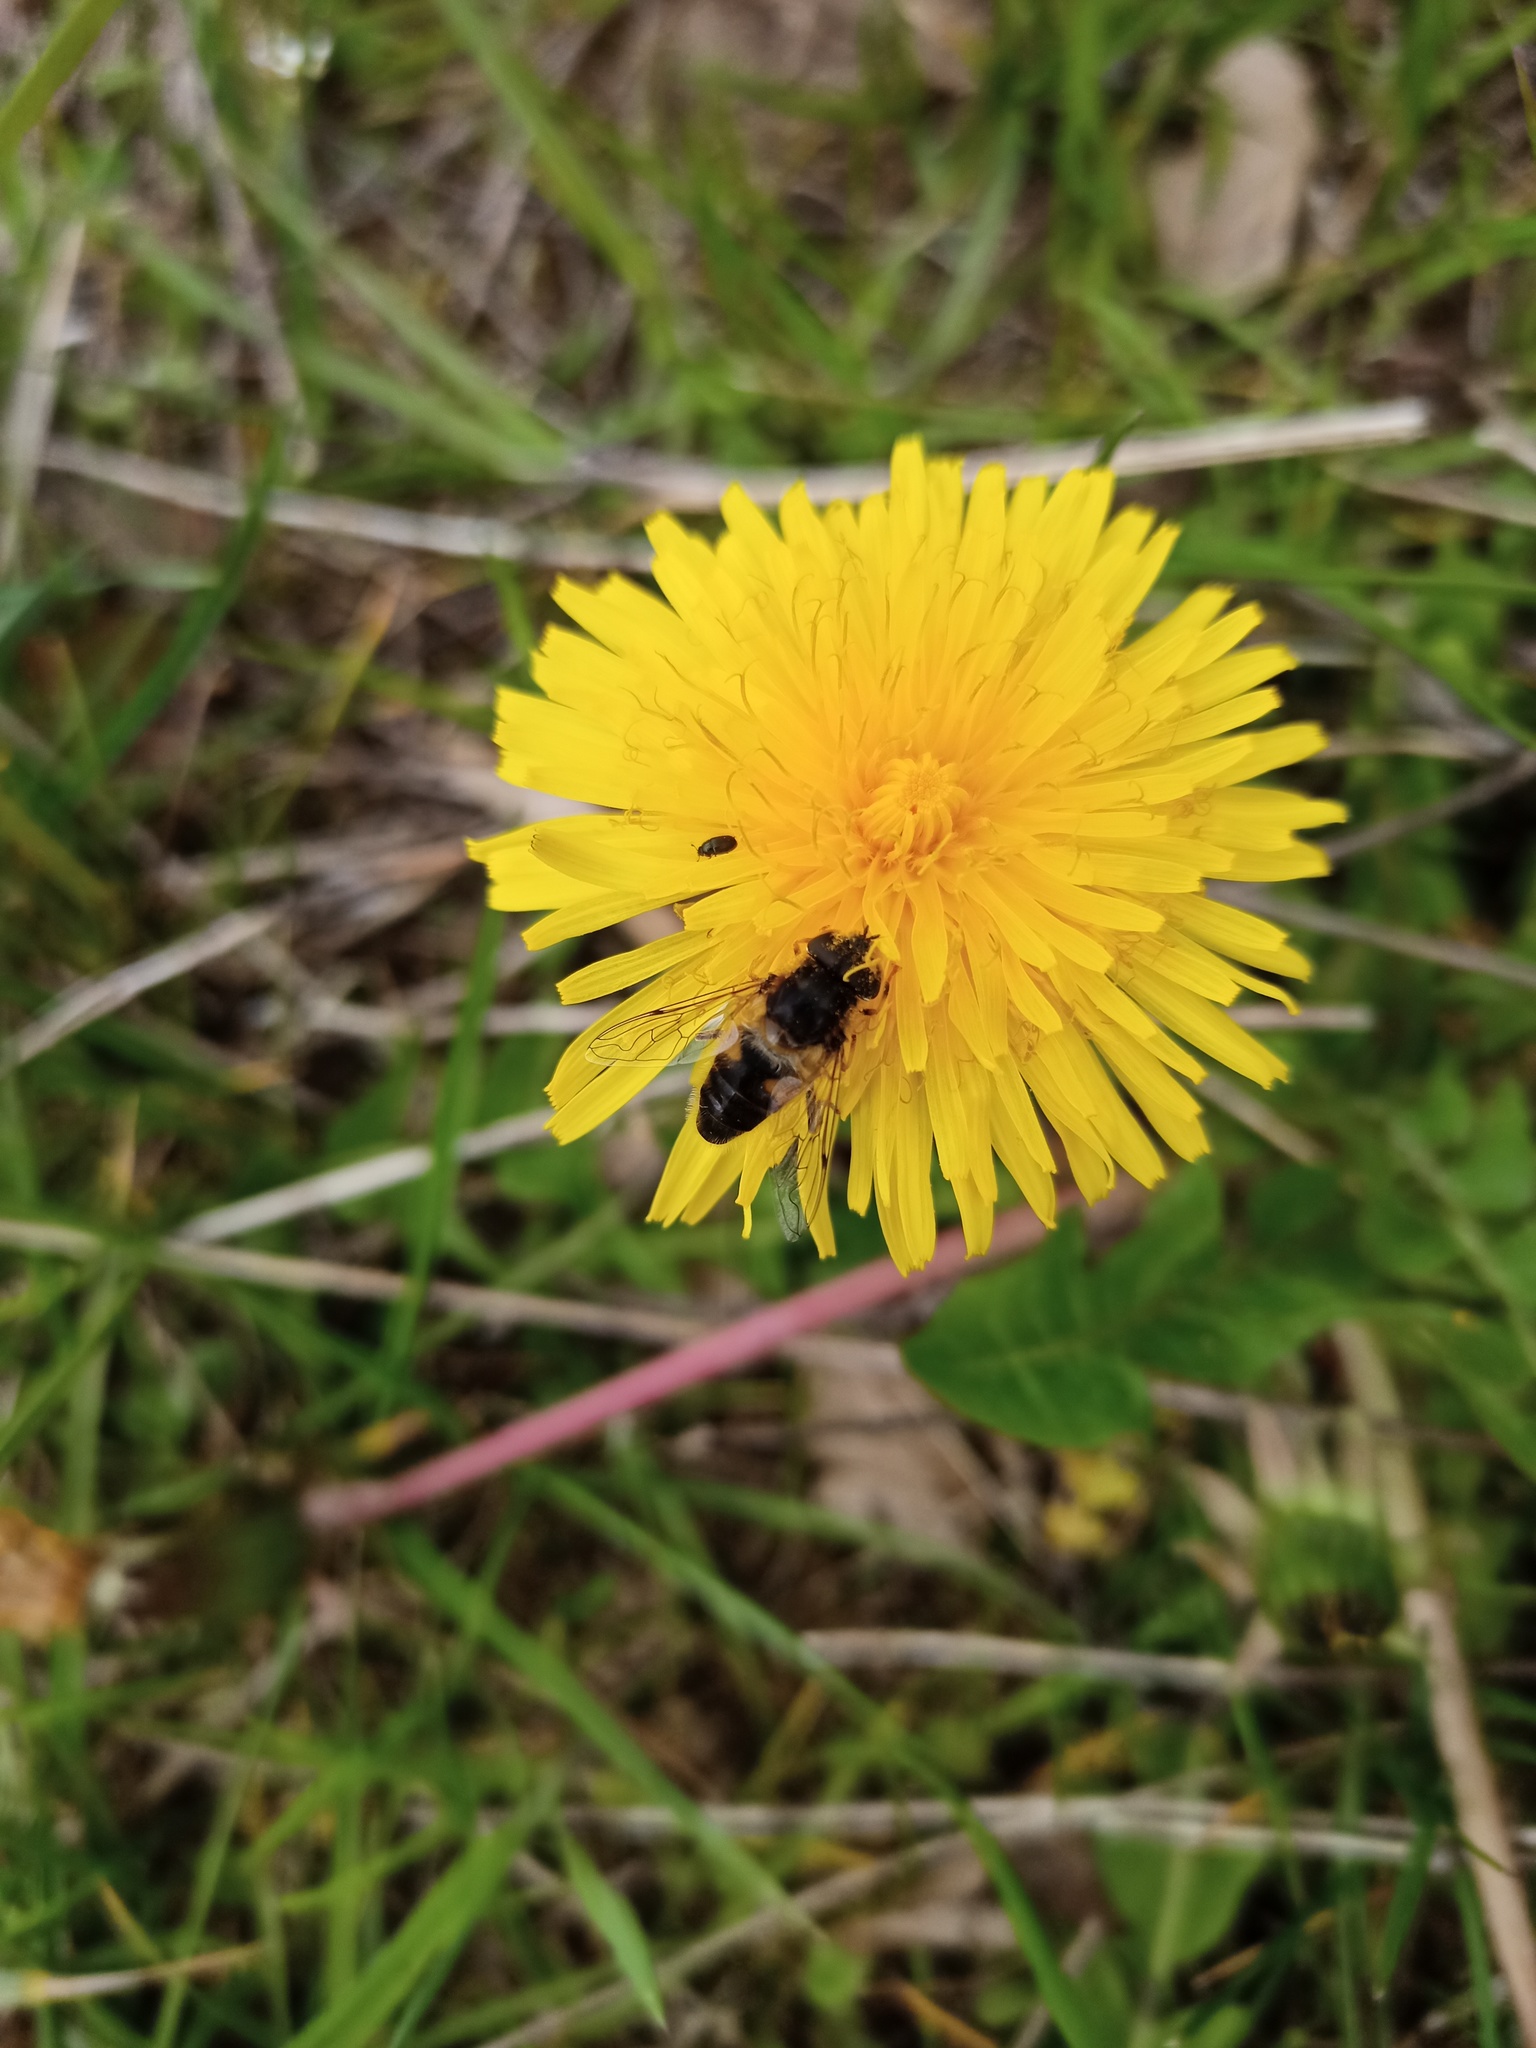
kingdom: Animalia
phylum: Arthropoda
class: Insecta
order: Diptera
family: Syrphidae
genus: Eristalis
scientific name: Eristalis pertinax
